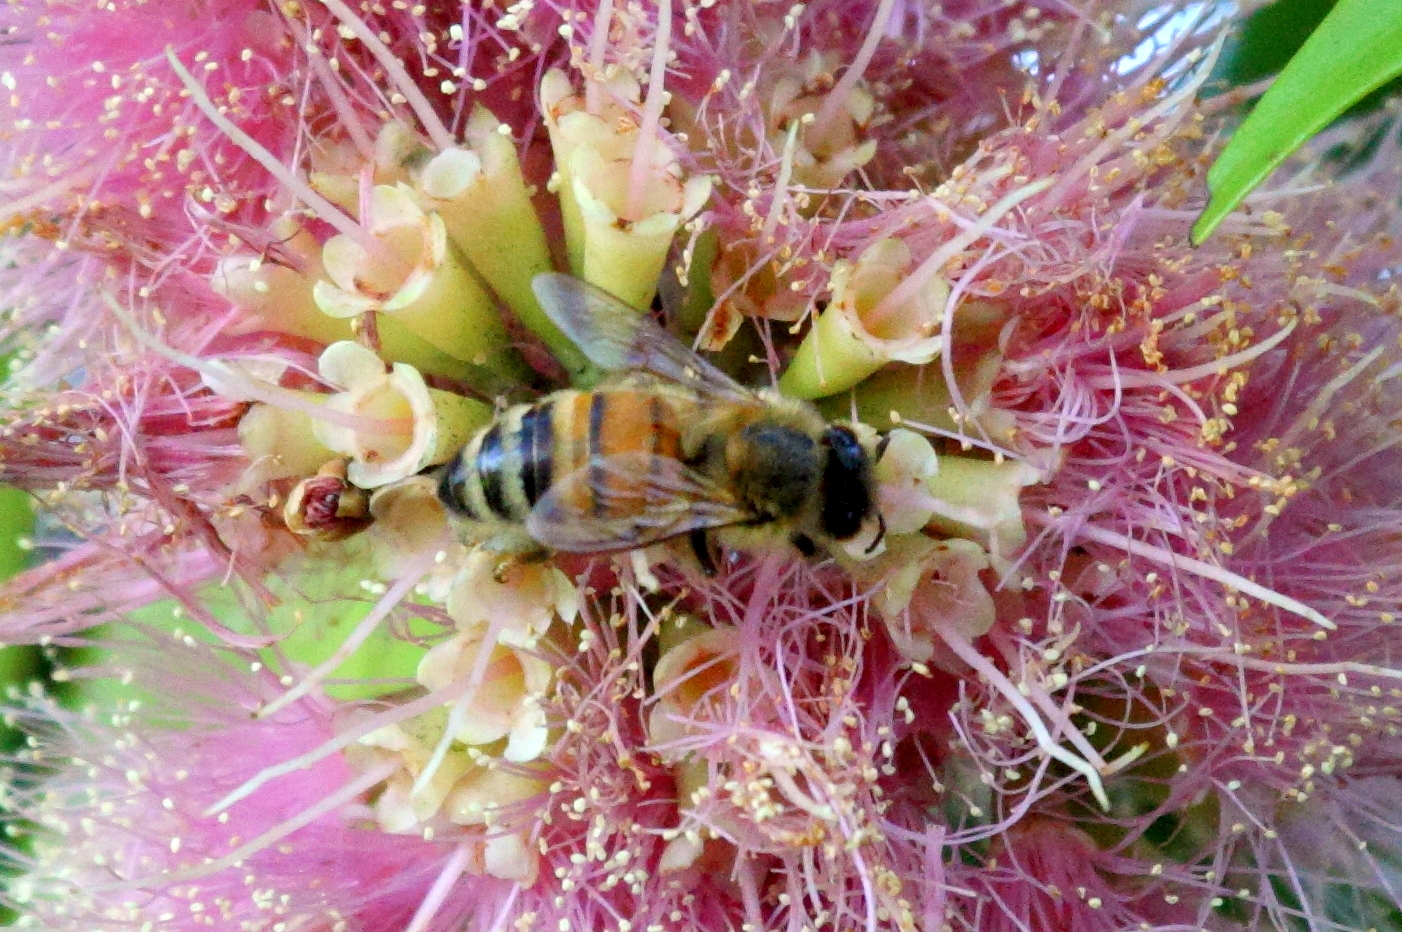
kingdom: Animalia
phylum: Arthropoda
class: Insecta
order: Hymenoptera
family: Apidae
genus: Apis
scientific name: Apis mellifera
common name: Honey bee
